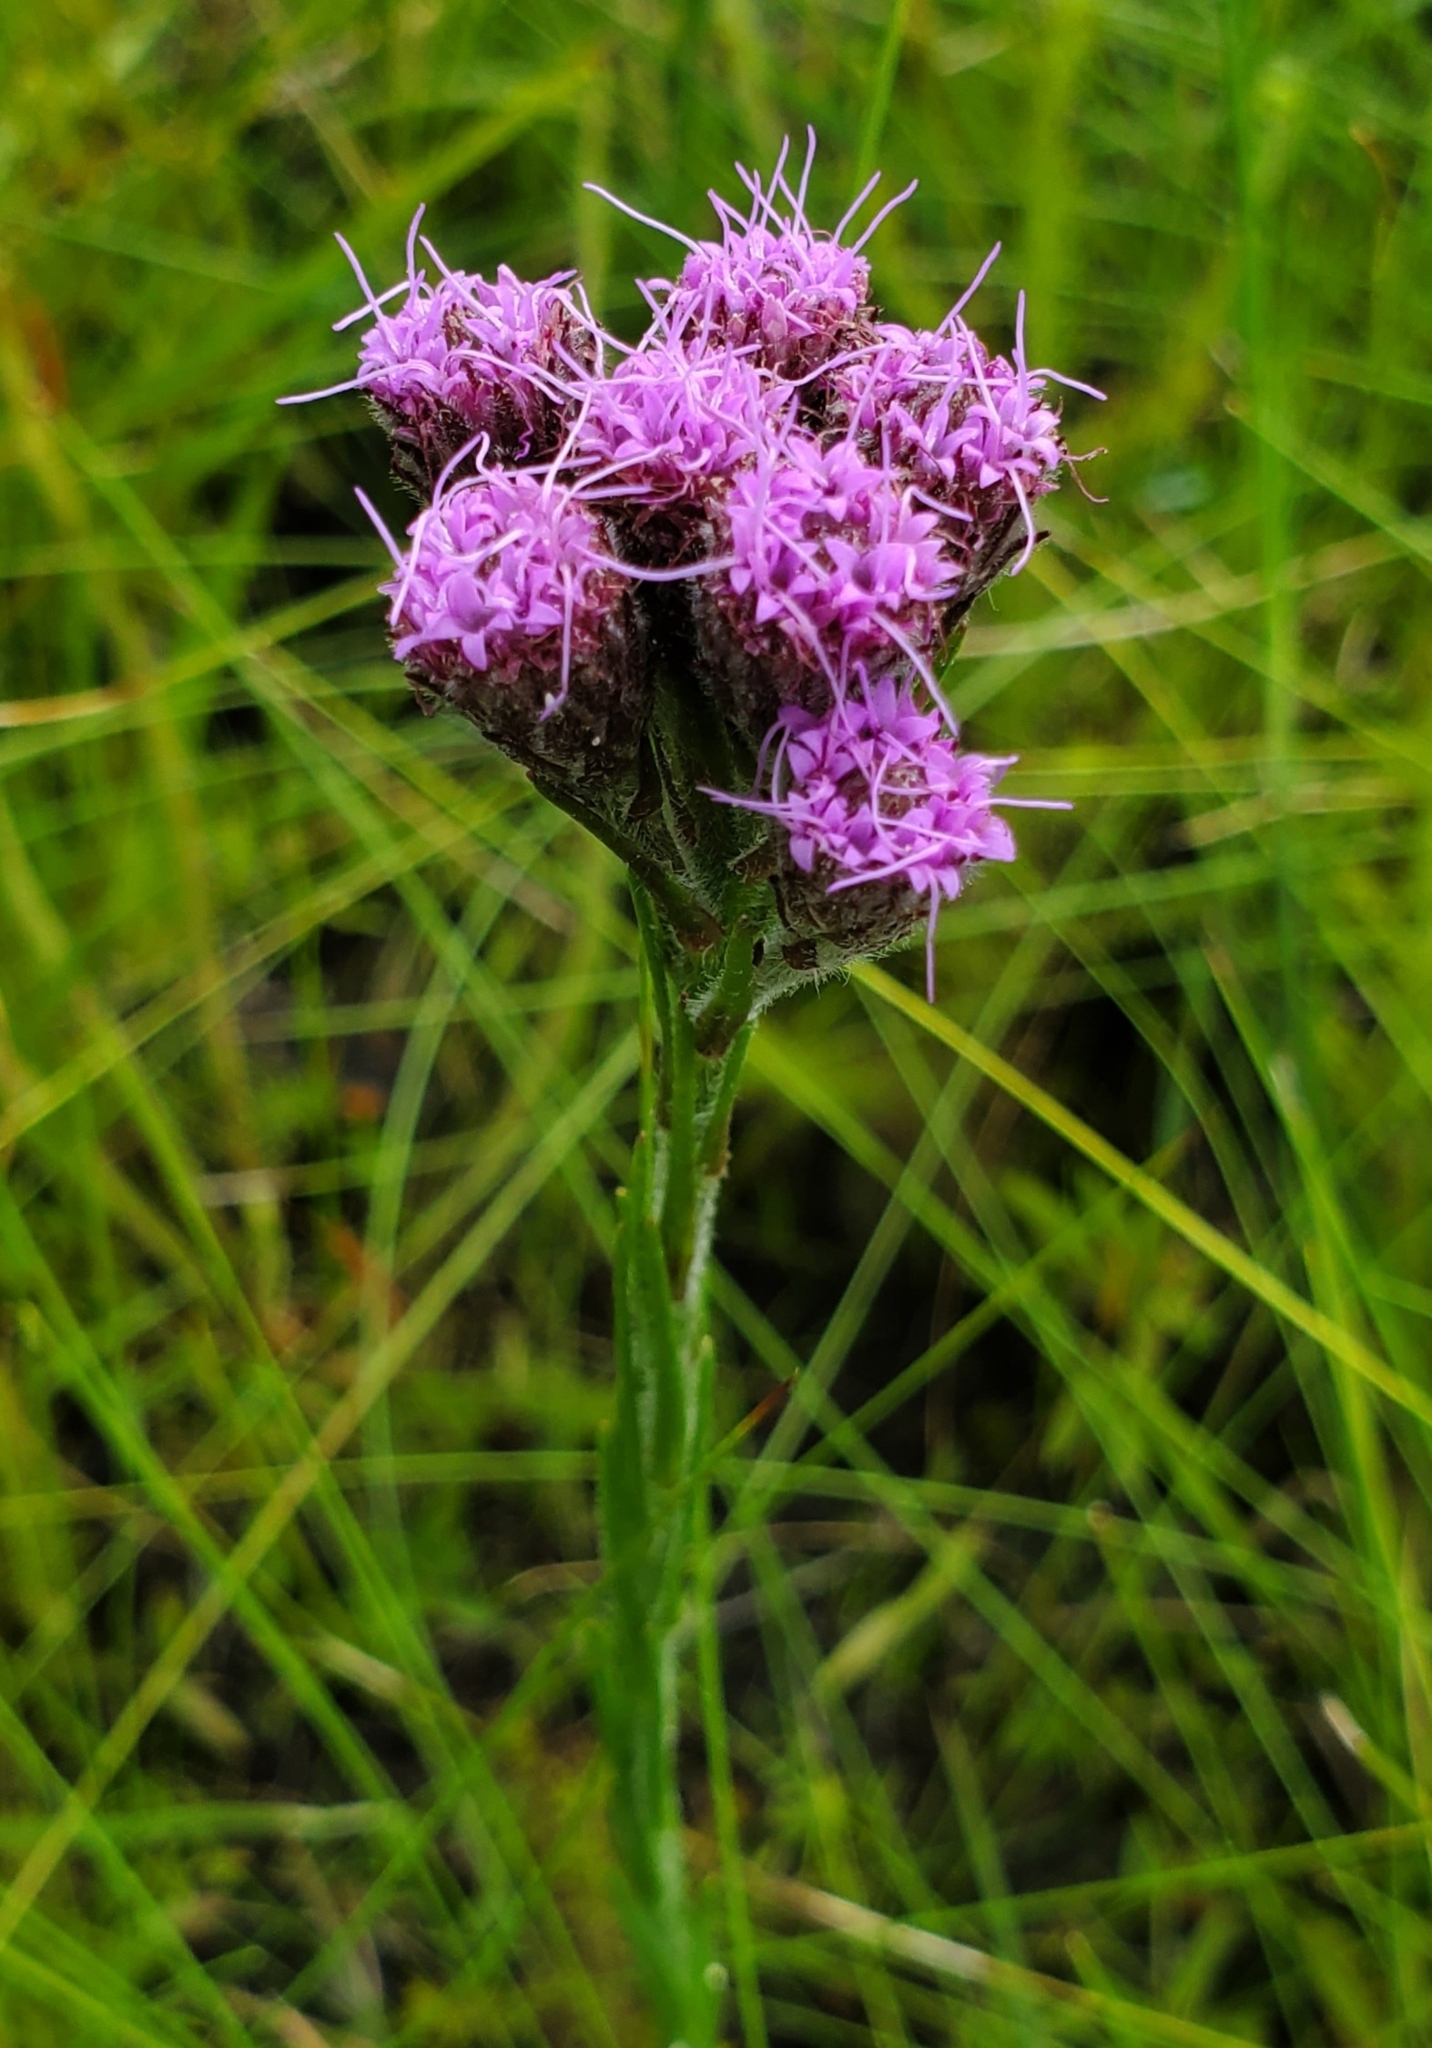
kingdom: Plantae
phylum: Tracheophyta
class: Magnoliopsida
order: Asterales
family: Asteraceae
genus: Carphephorus
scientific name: Carphephorus pseudoliatris
